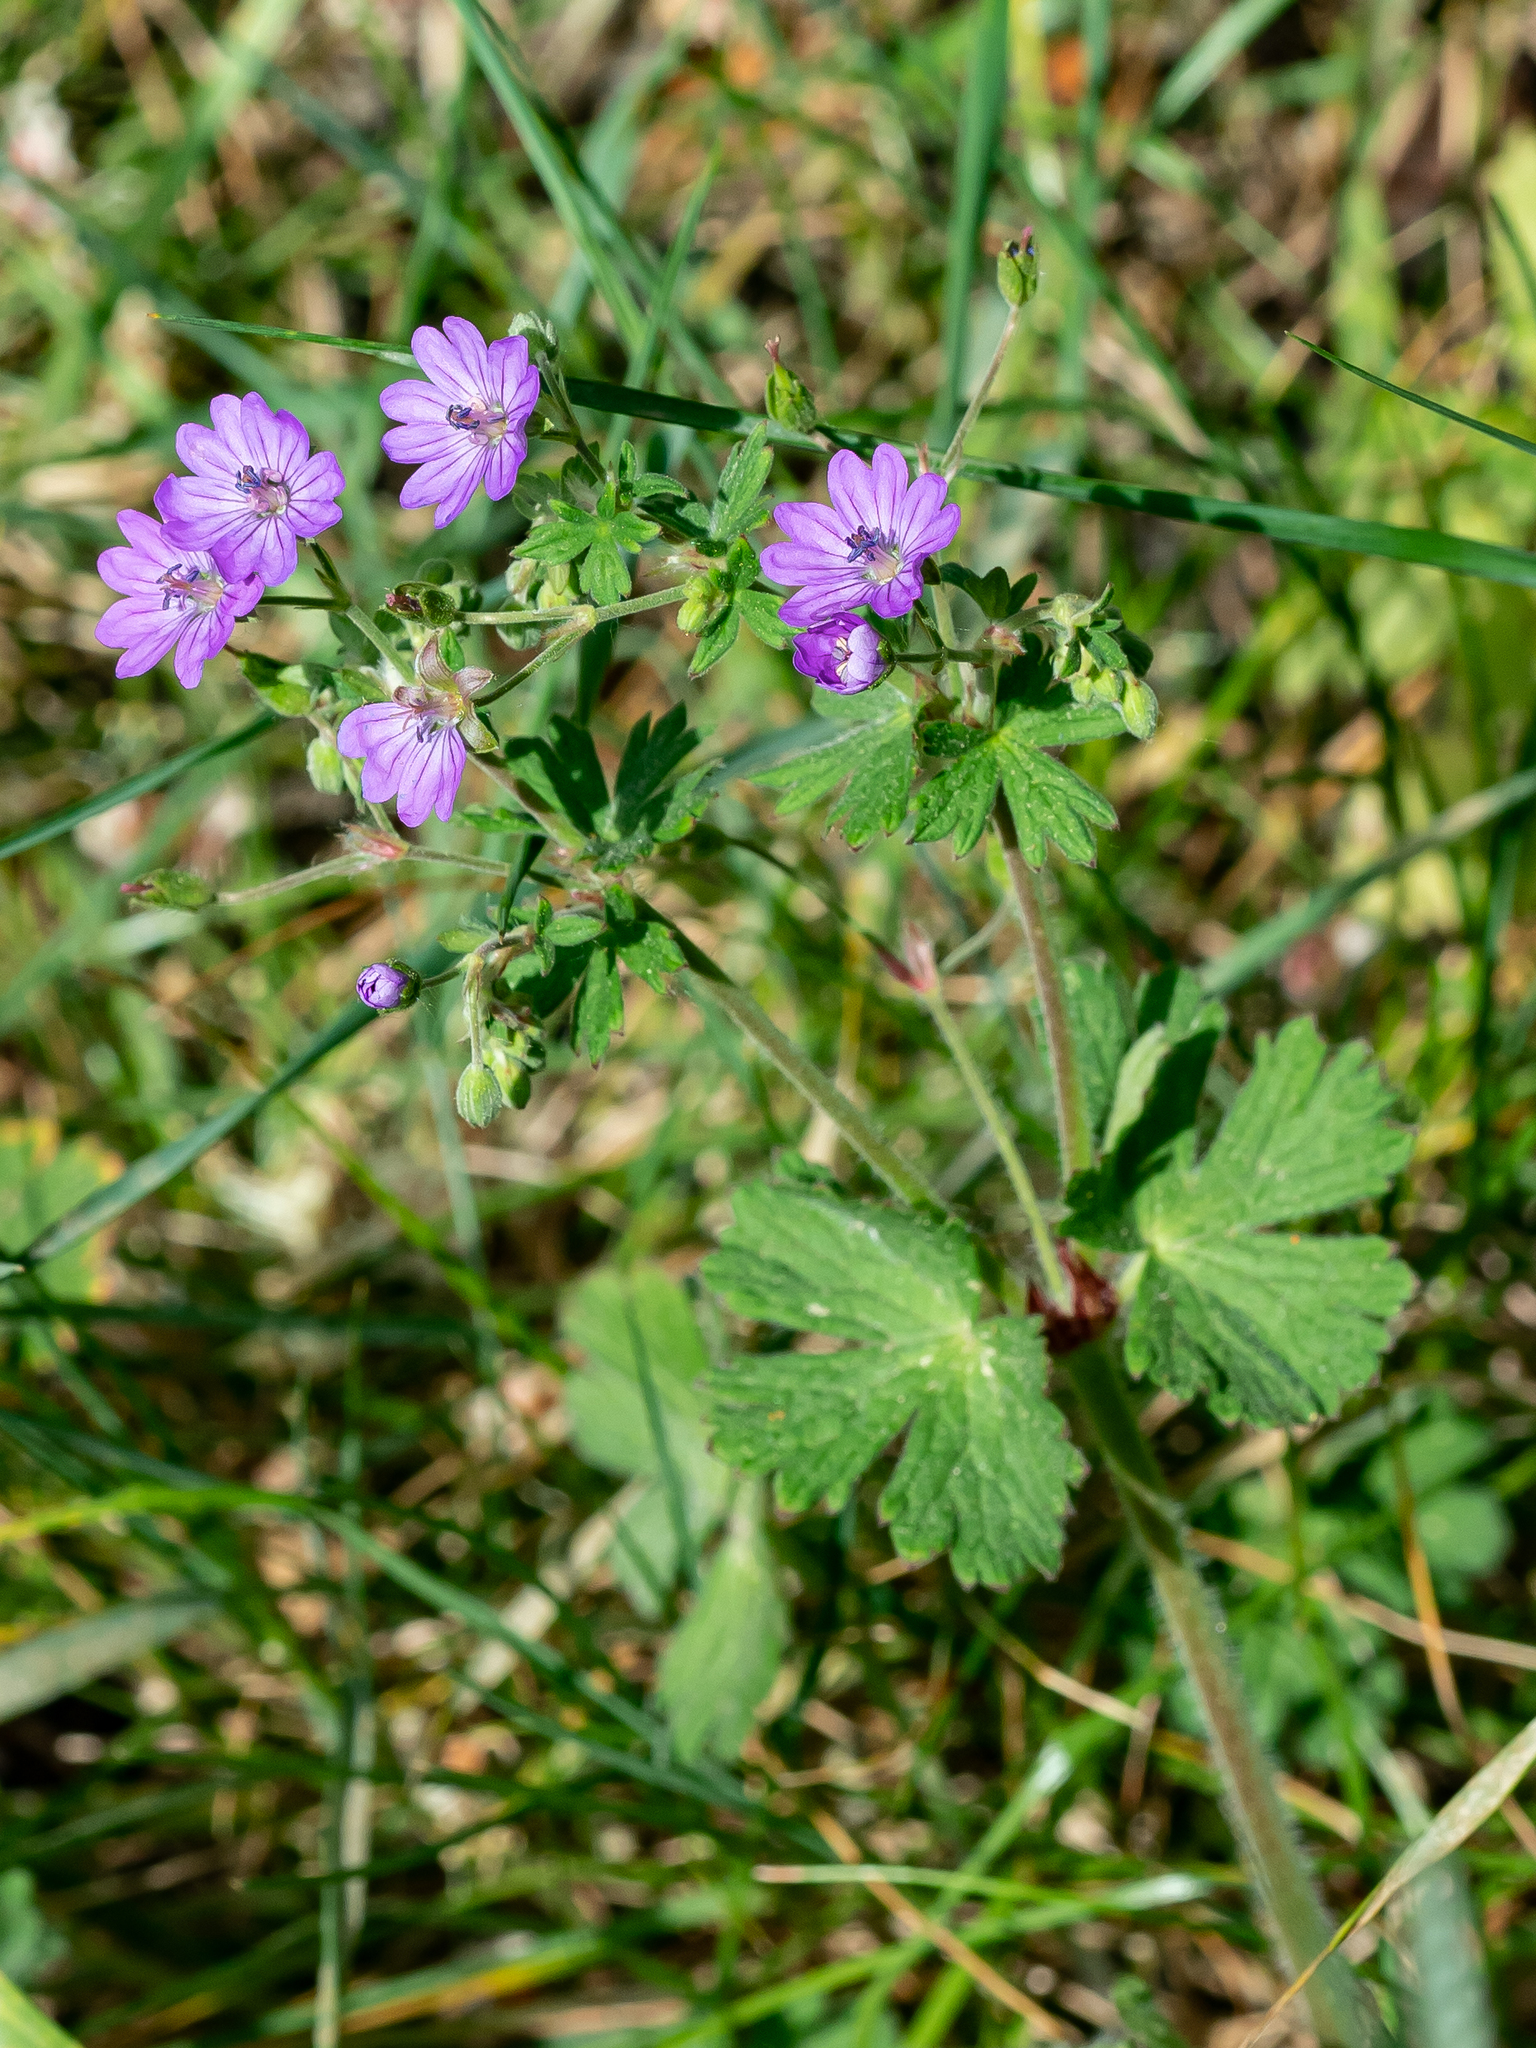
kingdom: Plantae
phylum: Tracheophyta
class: Magnoliopsida
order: Geraniales
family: Geraniaceae
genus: Geranium
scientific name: Geranium pyrenaicum
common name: Hedgerow crane's-bill
